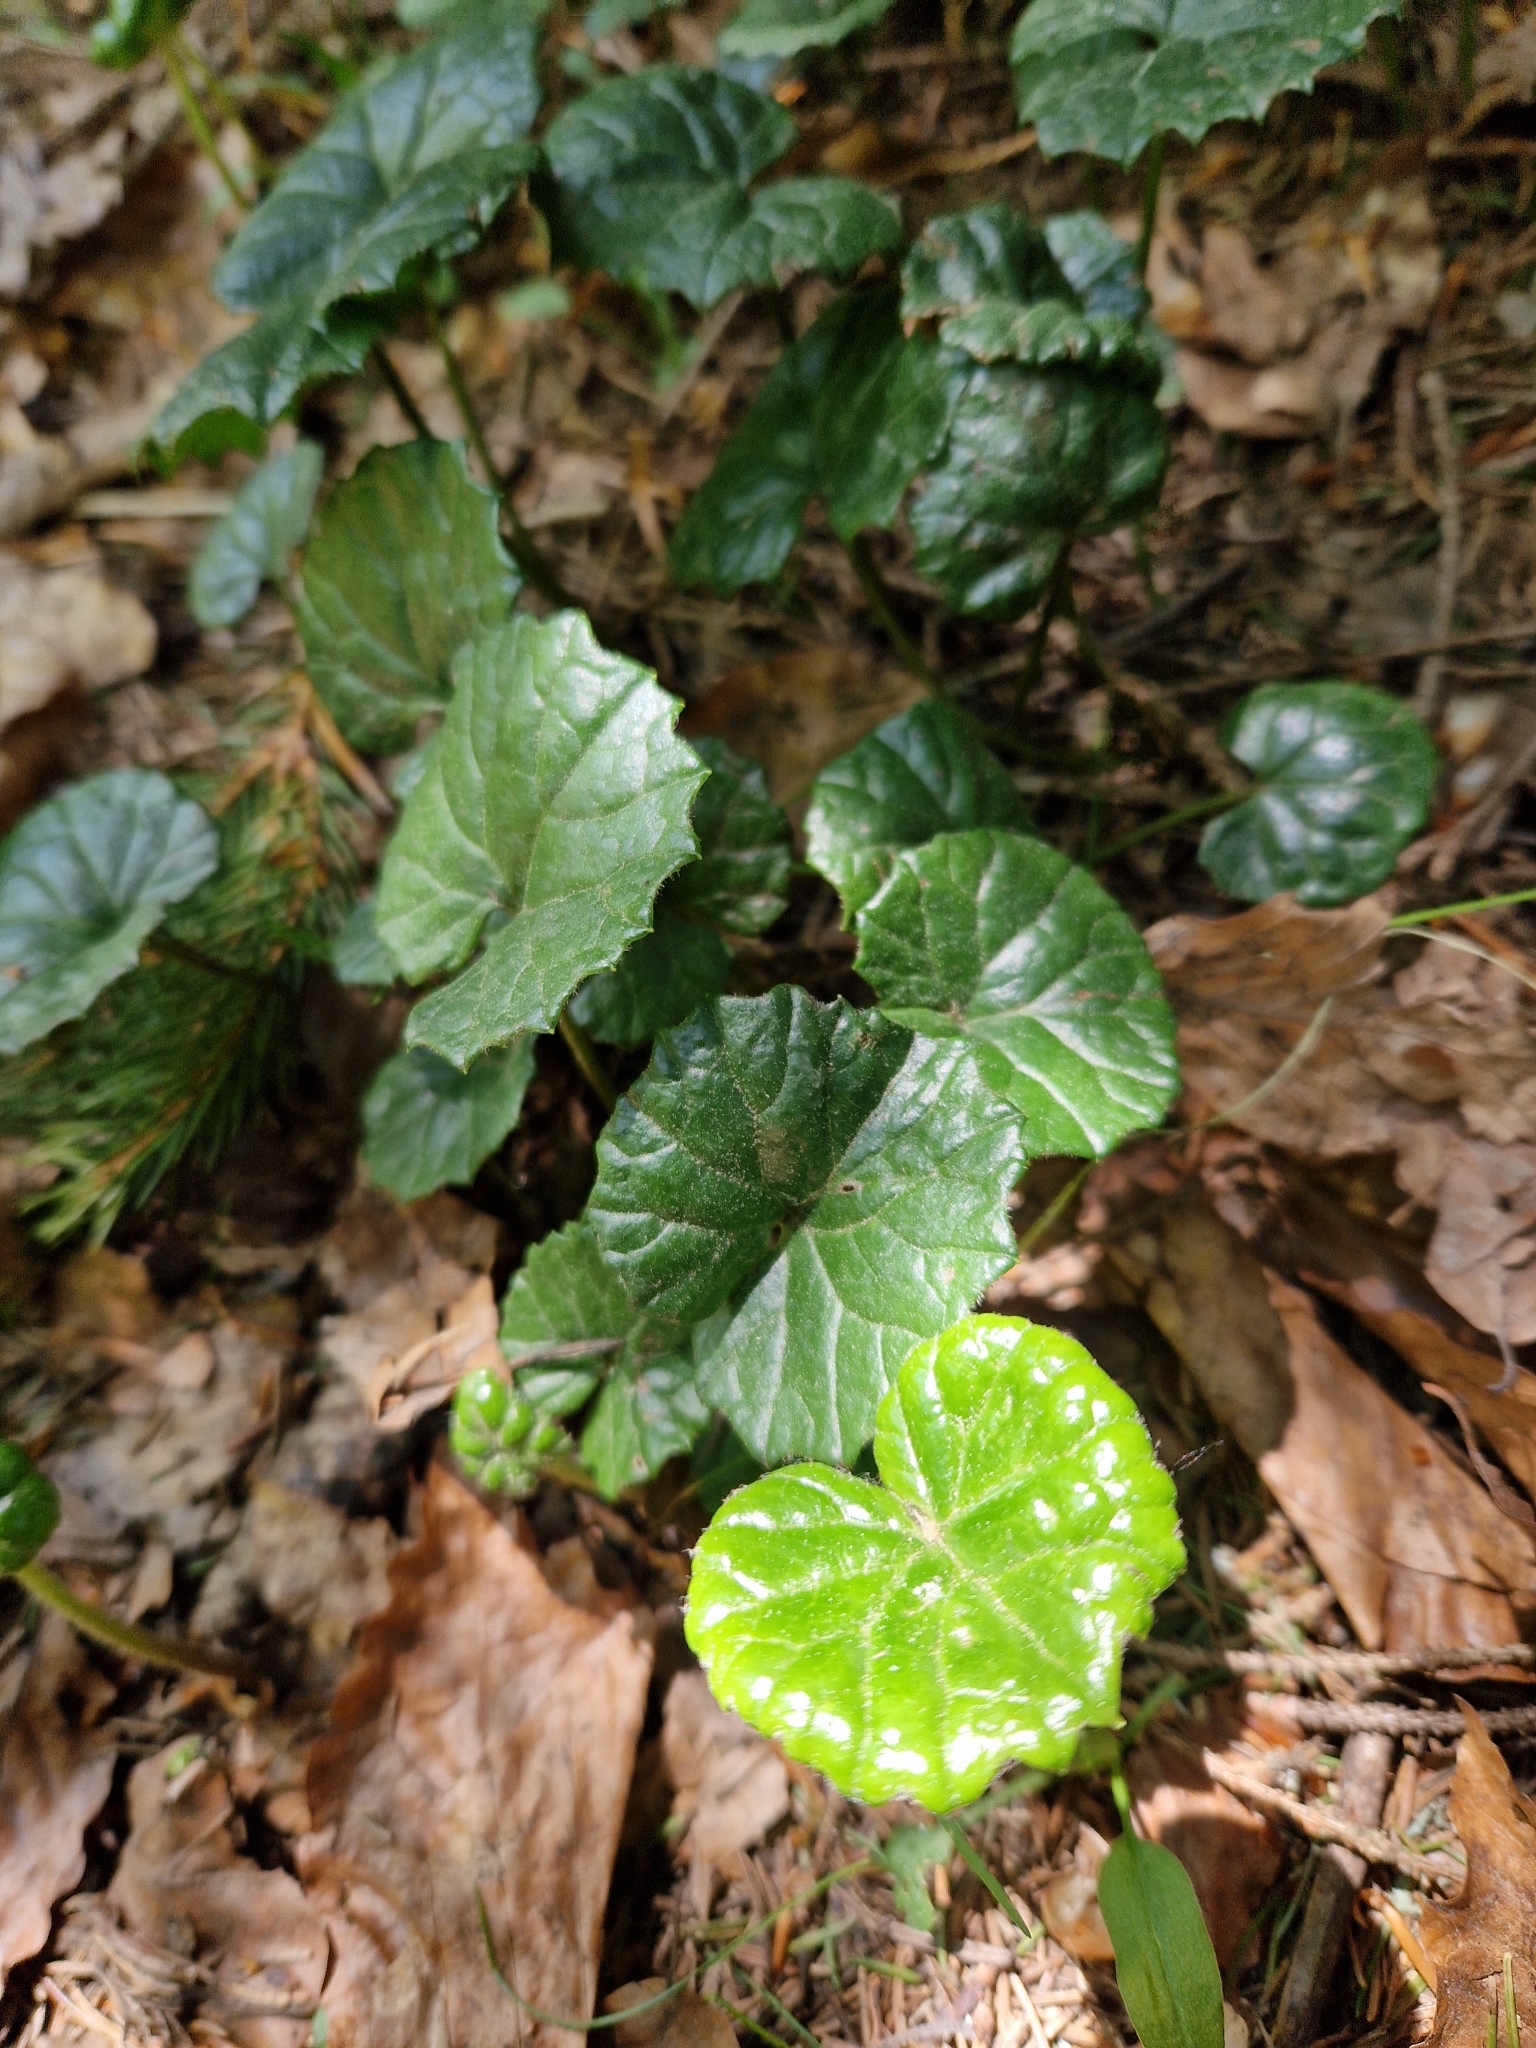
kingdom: Plantae
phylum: Tracheophyta
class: Magnoliopsida
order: Asterales
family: Asteraceae
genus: Homogyne
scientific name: Homogyne alpina
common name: Purple colt's-foot
